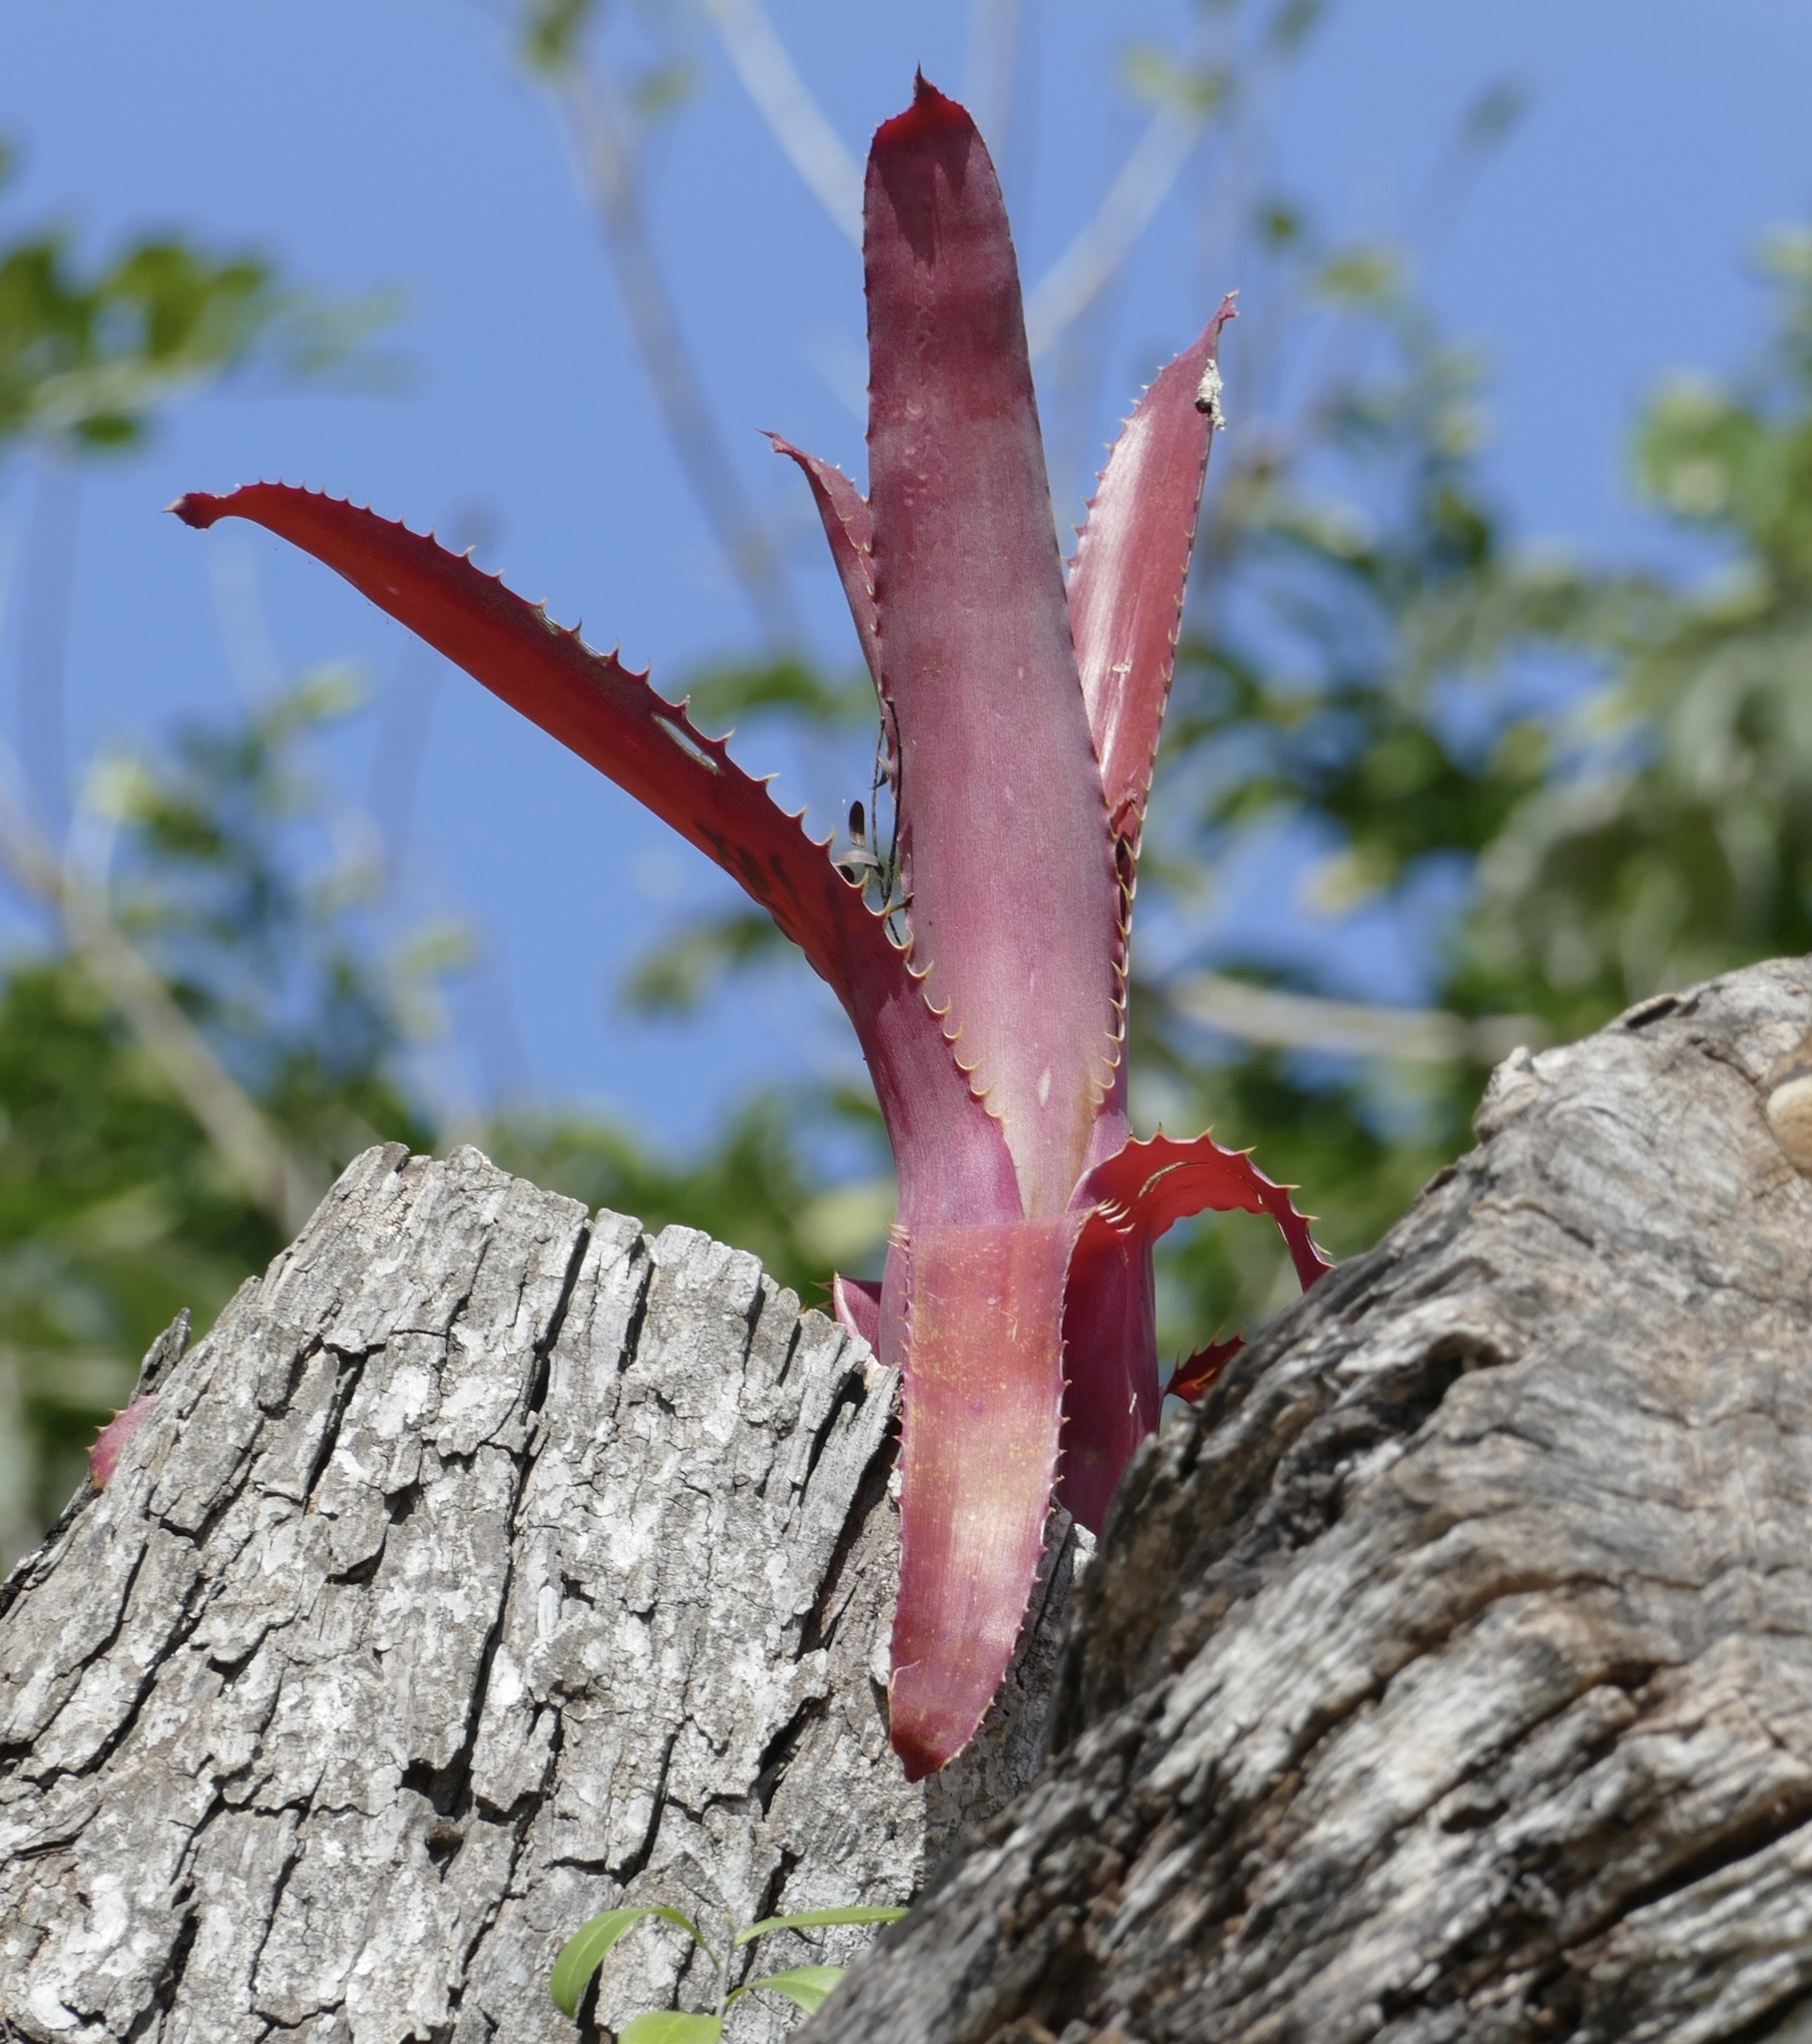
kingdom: Plantae
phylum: Tracheophyta
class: Liliopsida
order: Poales
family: Bromeliaceae
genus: Aechmea
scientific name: Aechmea bracteata
